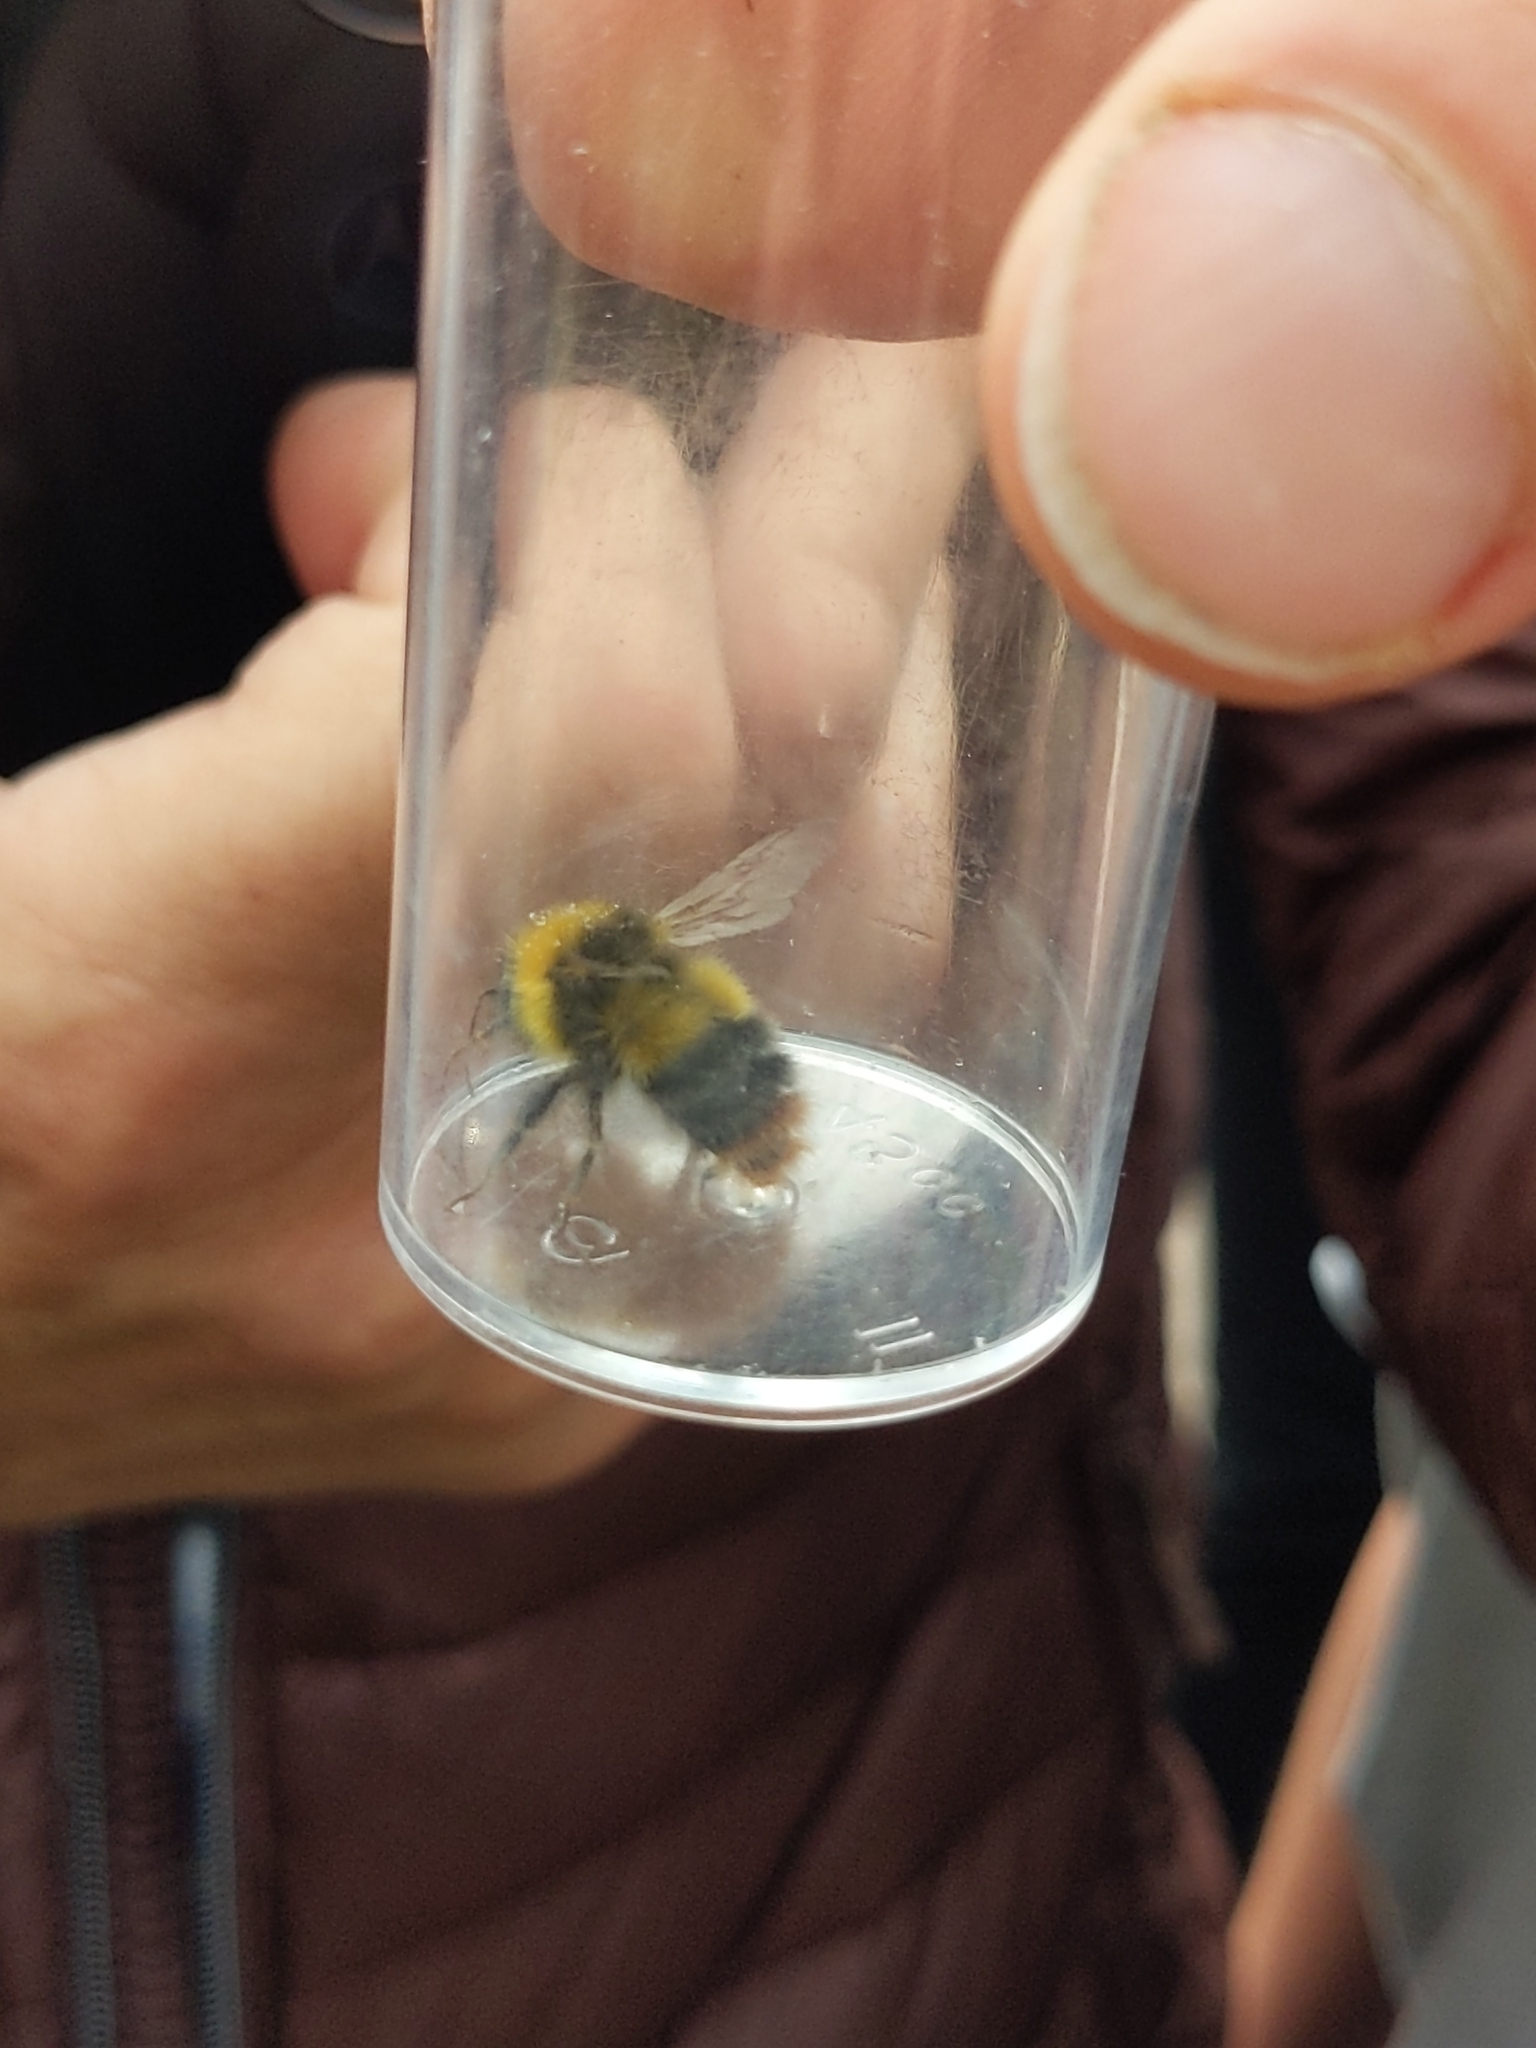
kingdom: Animalia
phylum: Arthropoda
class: Insecta
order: Hymenoptera
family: Apidae
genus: Bombus
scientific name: Bombus pratorum
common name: Early humble-bee
